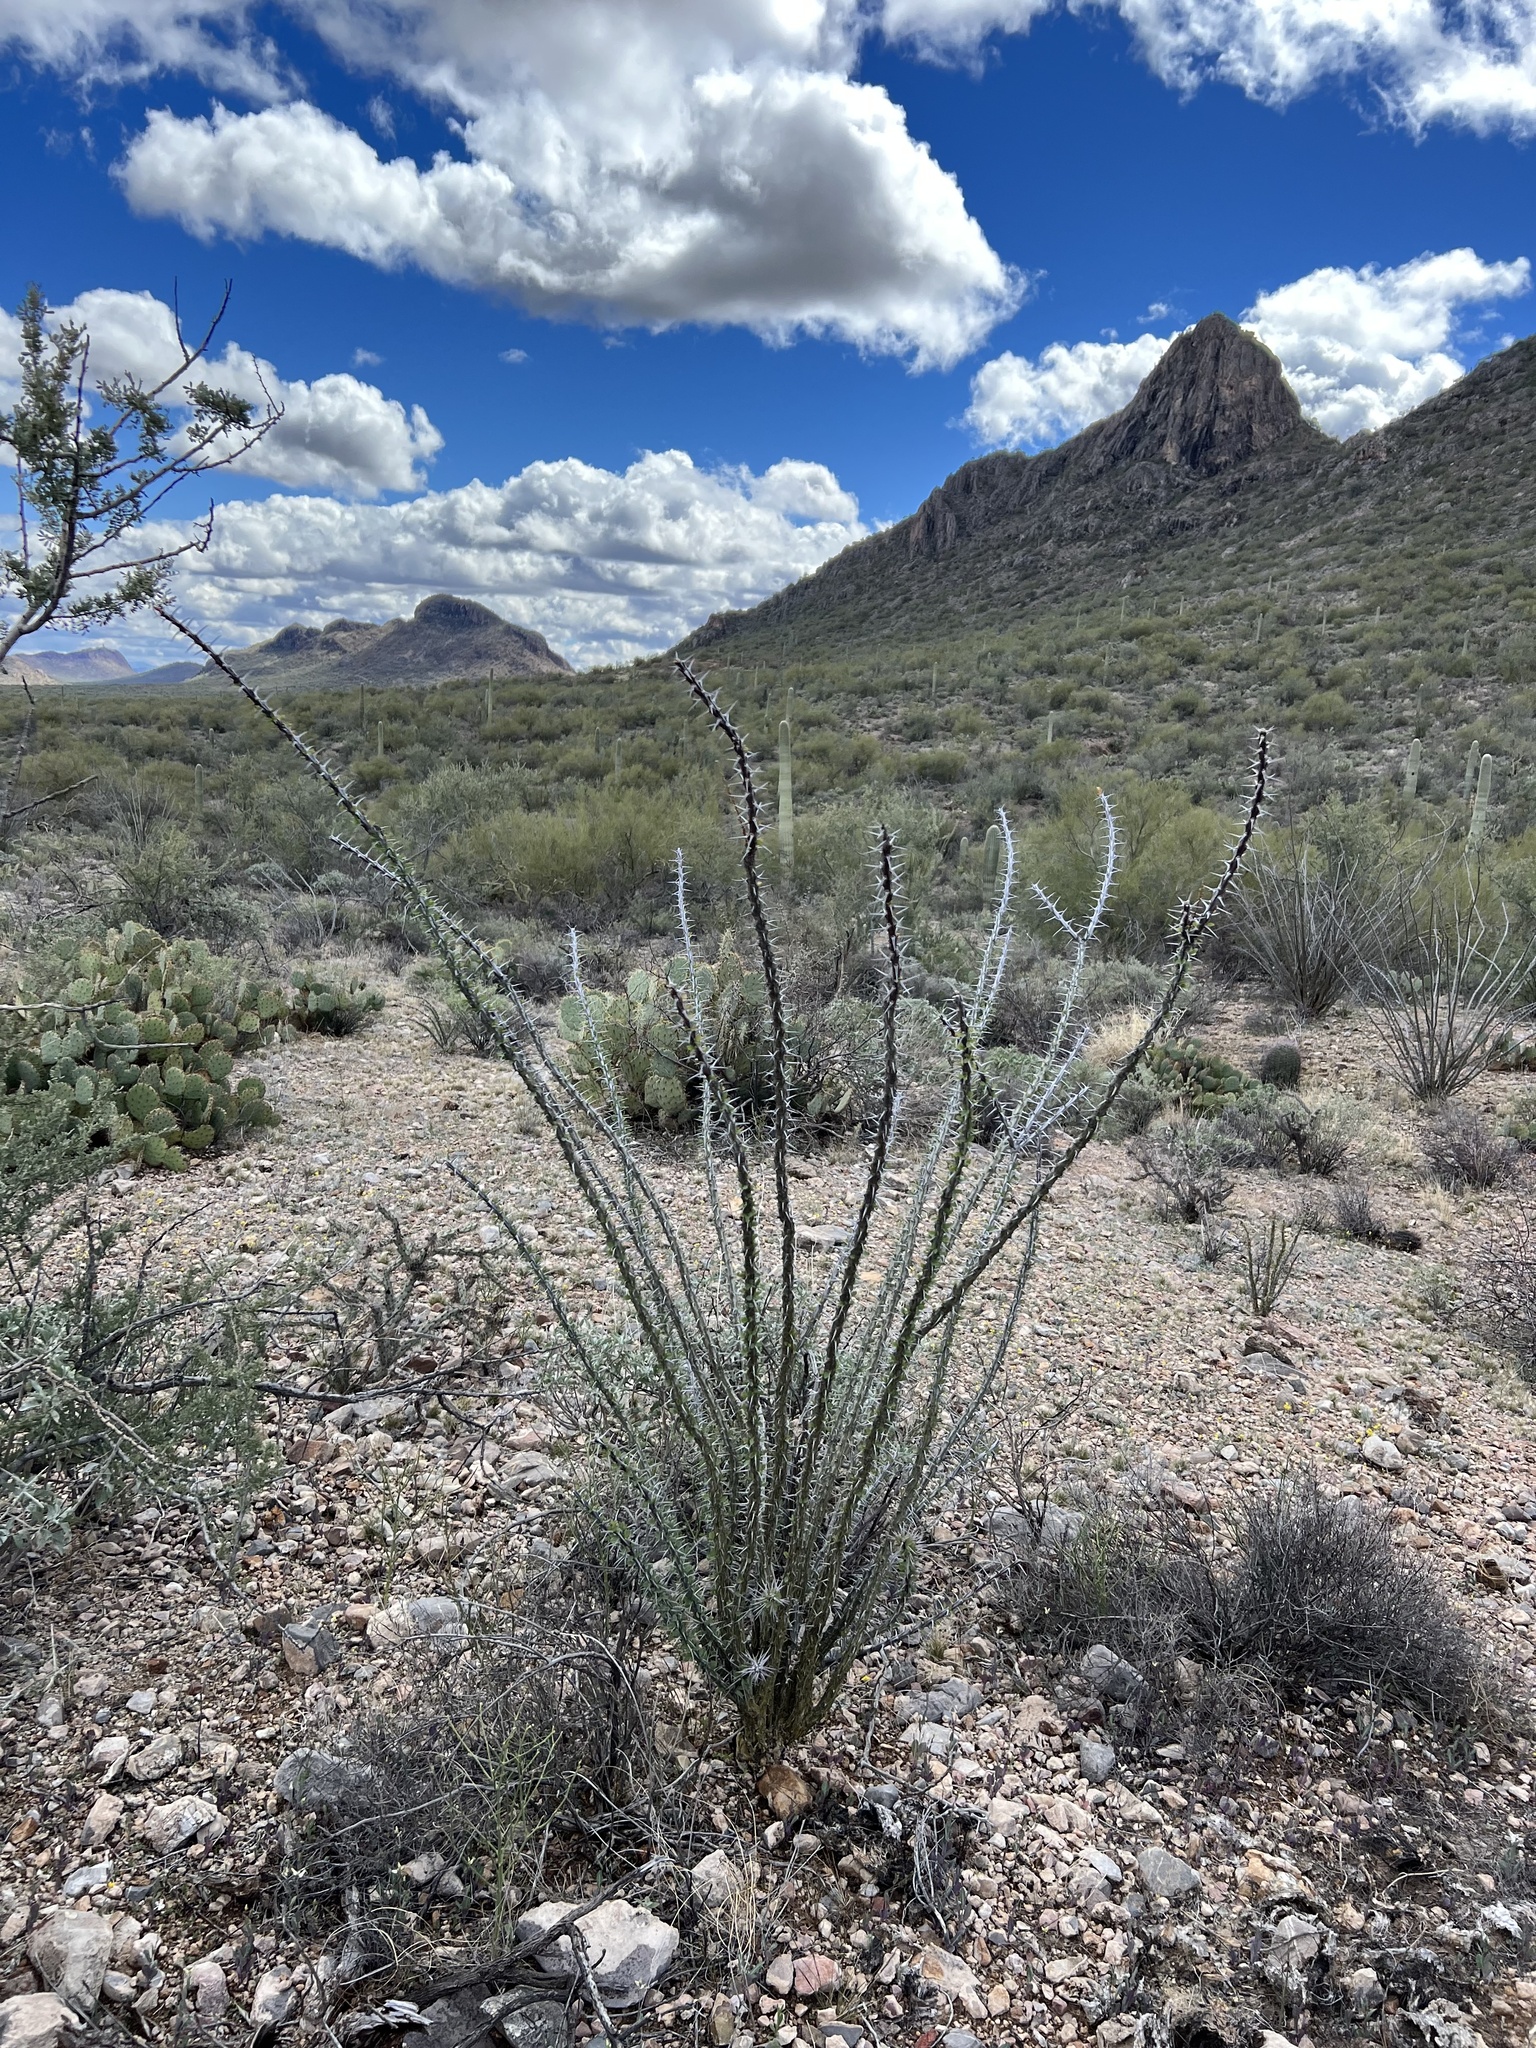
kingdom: Plantae
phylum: Tracheophyta
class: Magnoliopsida
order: Ericales
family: Fouquieriaceae
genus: Fouquieria
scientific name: Fouquieria splendens
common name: Vine-cactus
